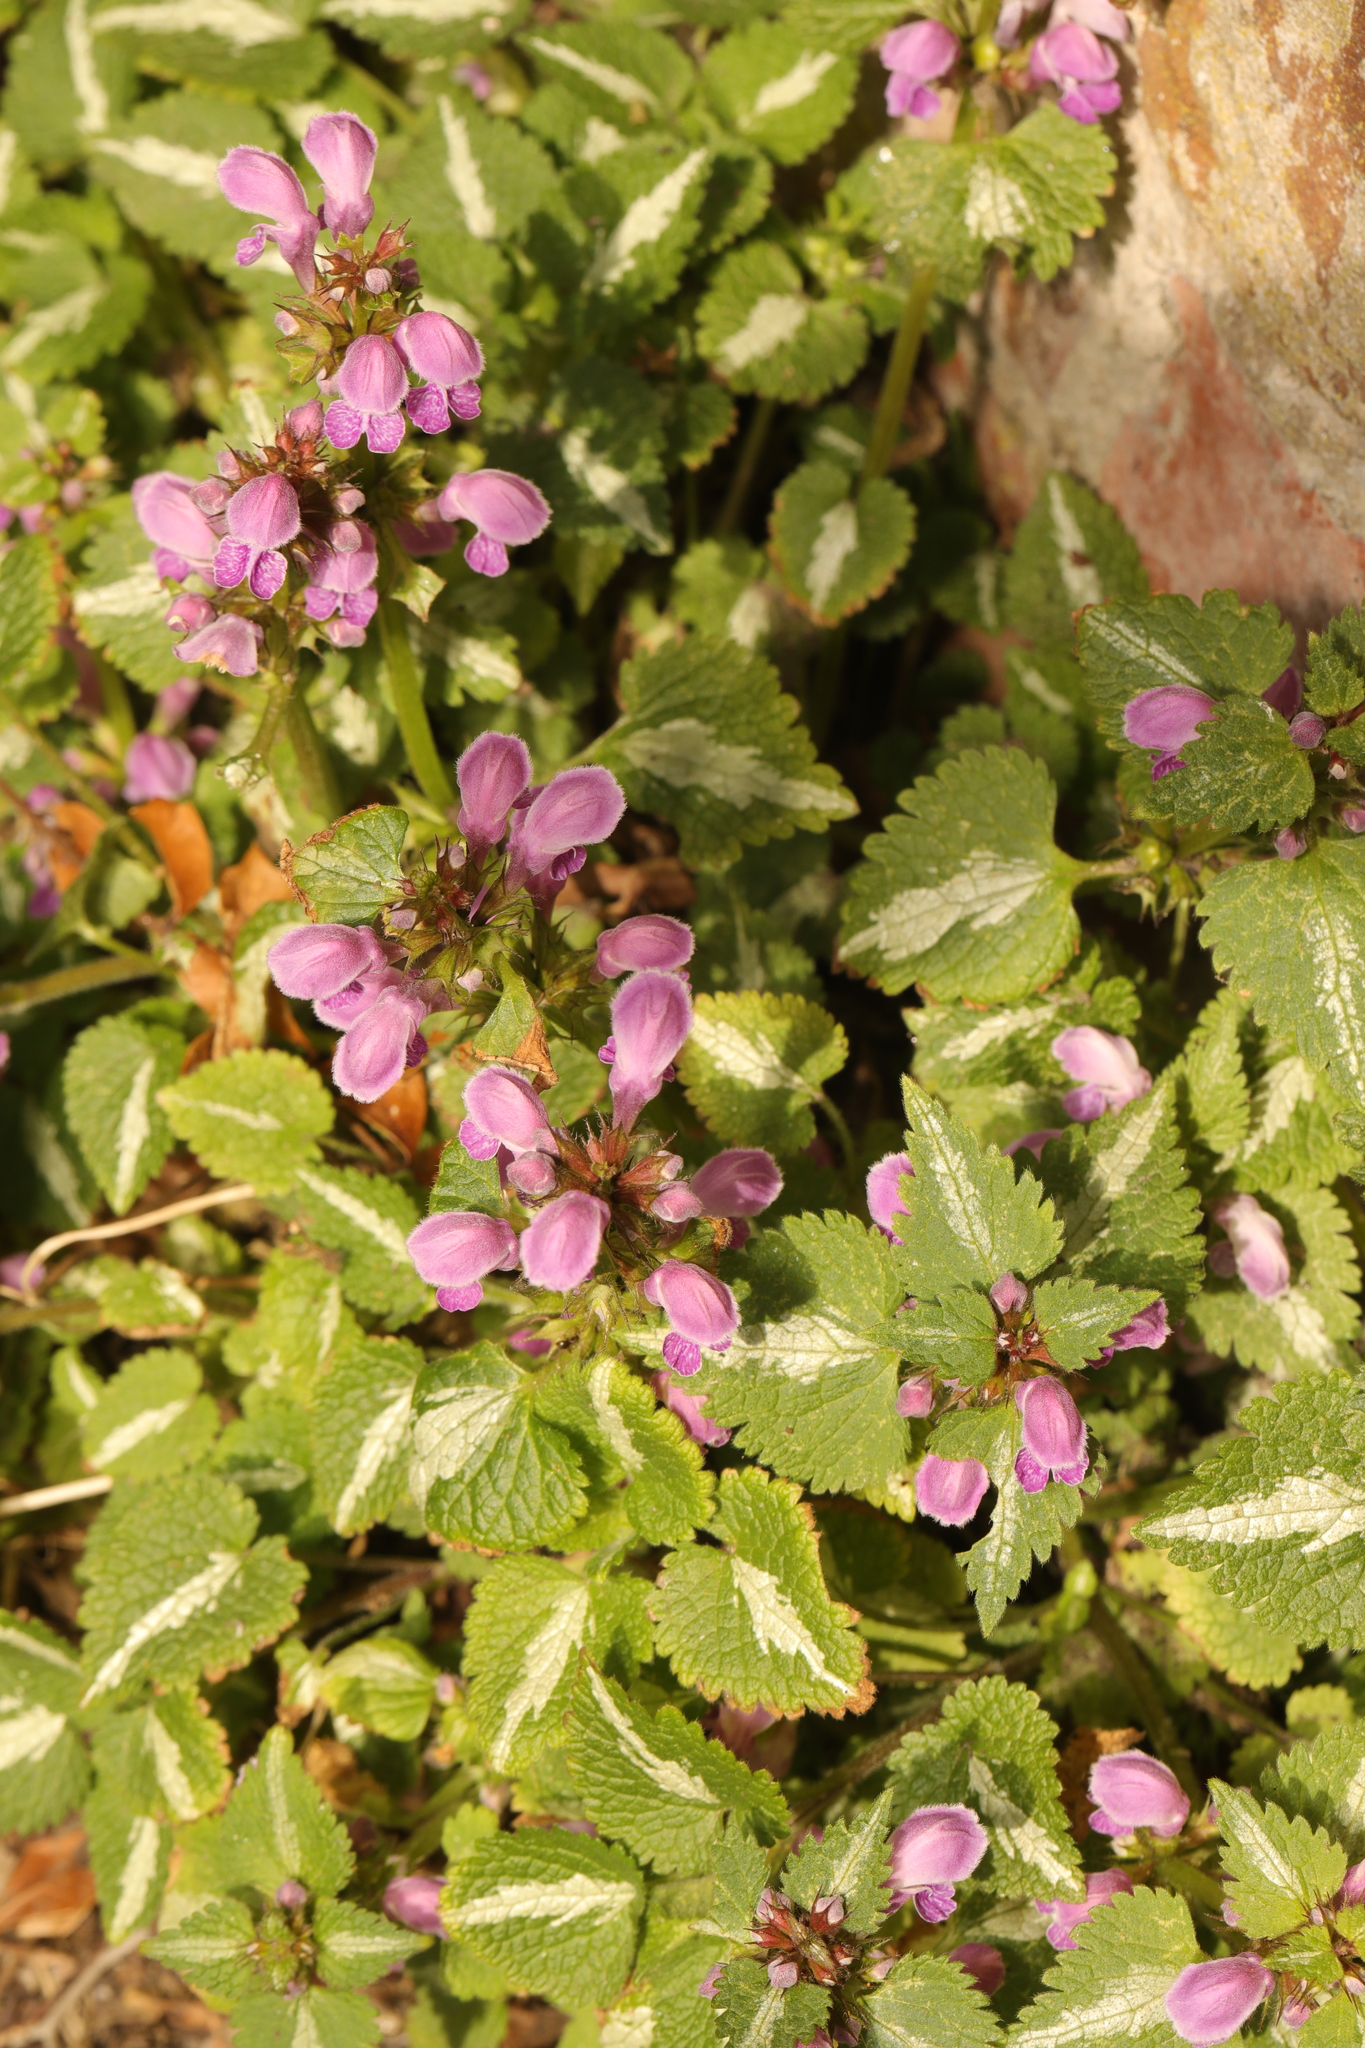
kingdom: Plantae
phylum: Tracheophyta
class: Magnoliopsida
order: Lamiales
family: Lamiaceae
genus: Lamium
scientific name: Lamium maculatum
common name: Spotted dead-nettle
